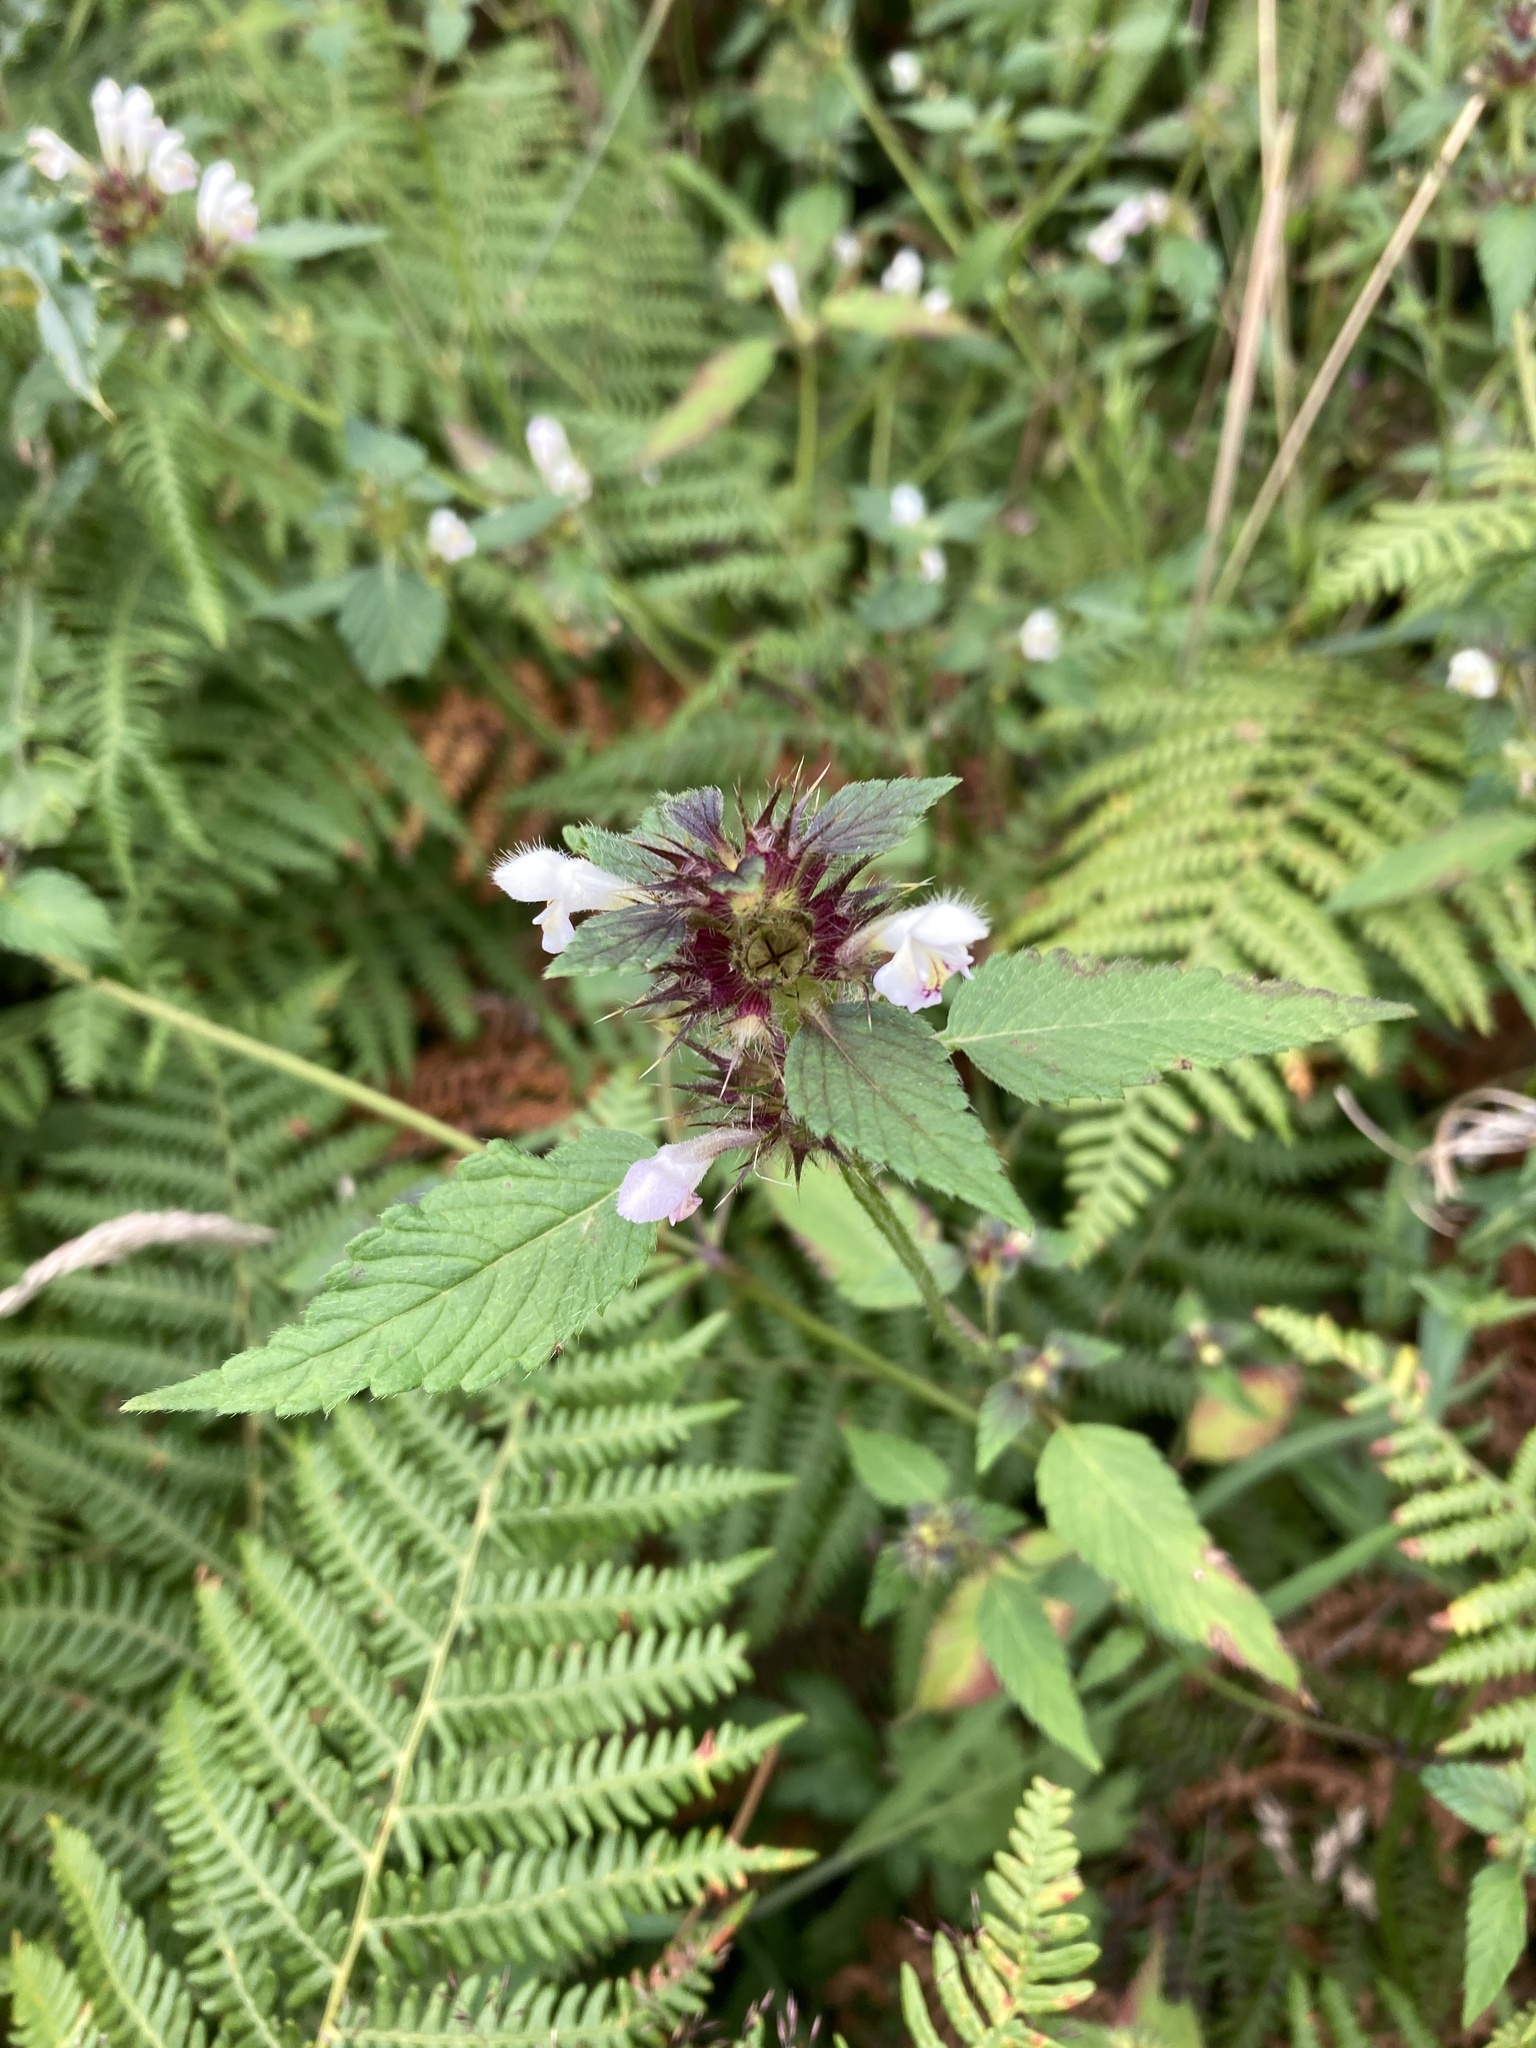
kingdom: Plantae
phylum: Tracheophyta
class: Magnoliopsida
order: Lamiales
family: Lamiaceae
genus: Galeopsis
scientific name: Galeopsis tetrahit
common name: Common hemp-nettle
